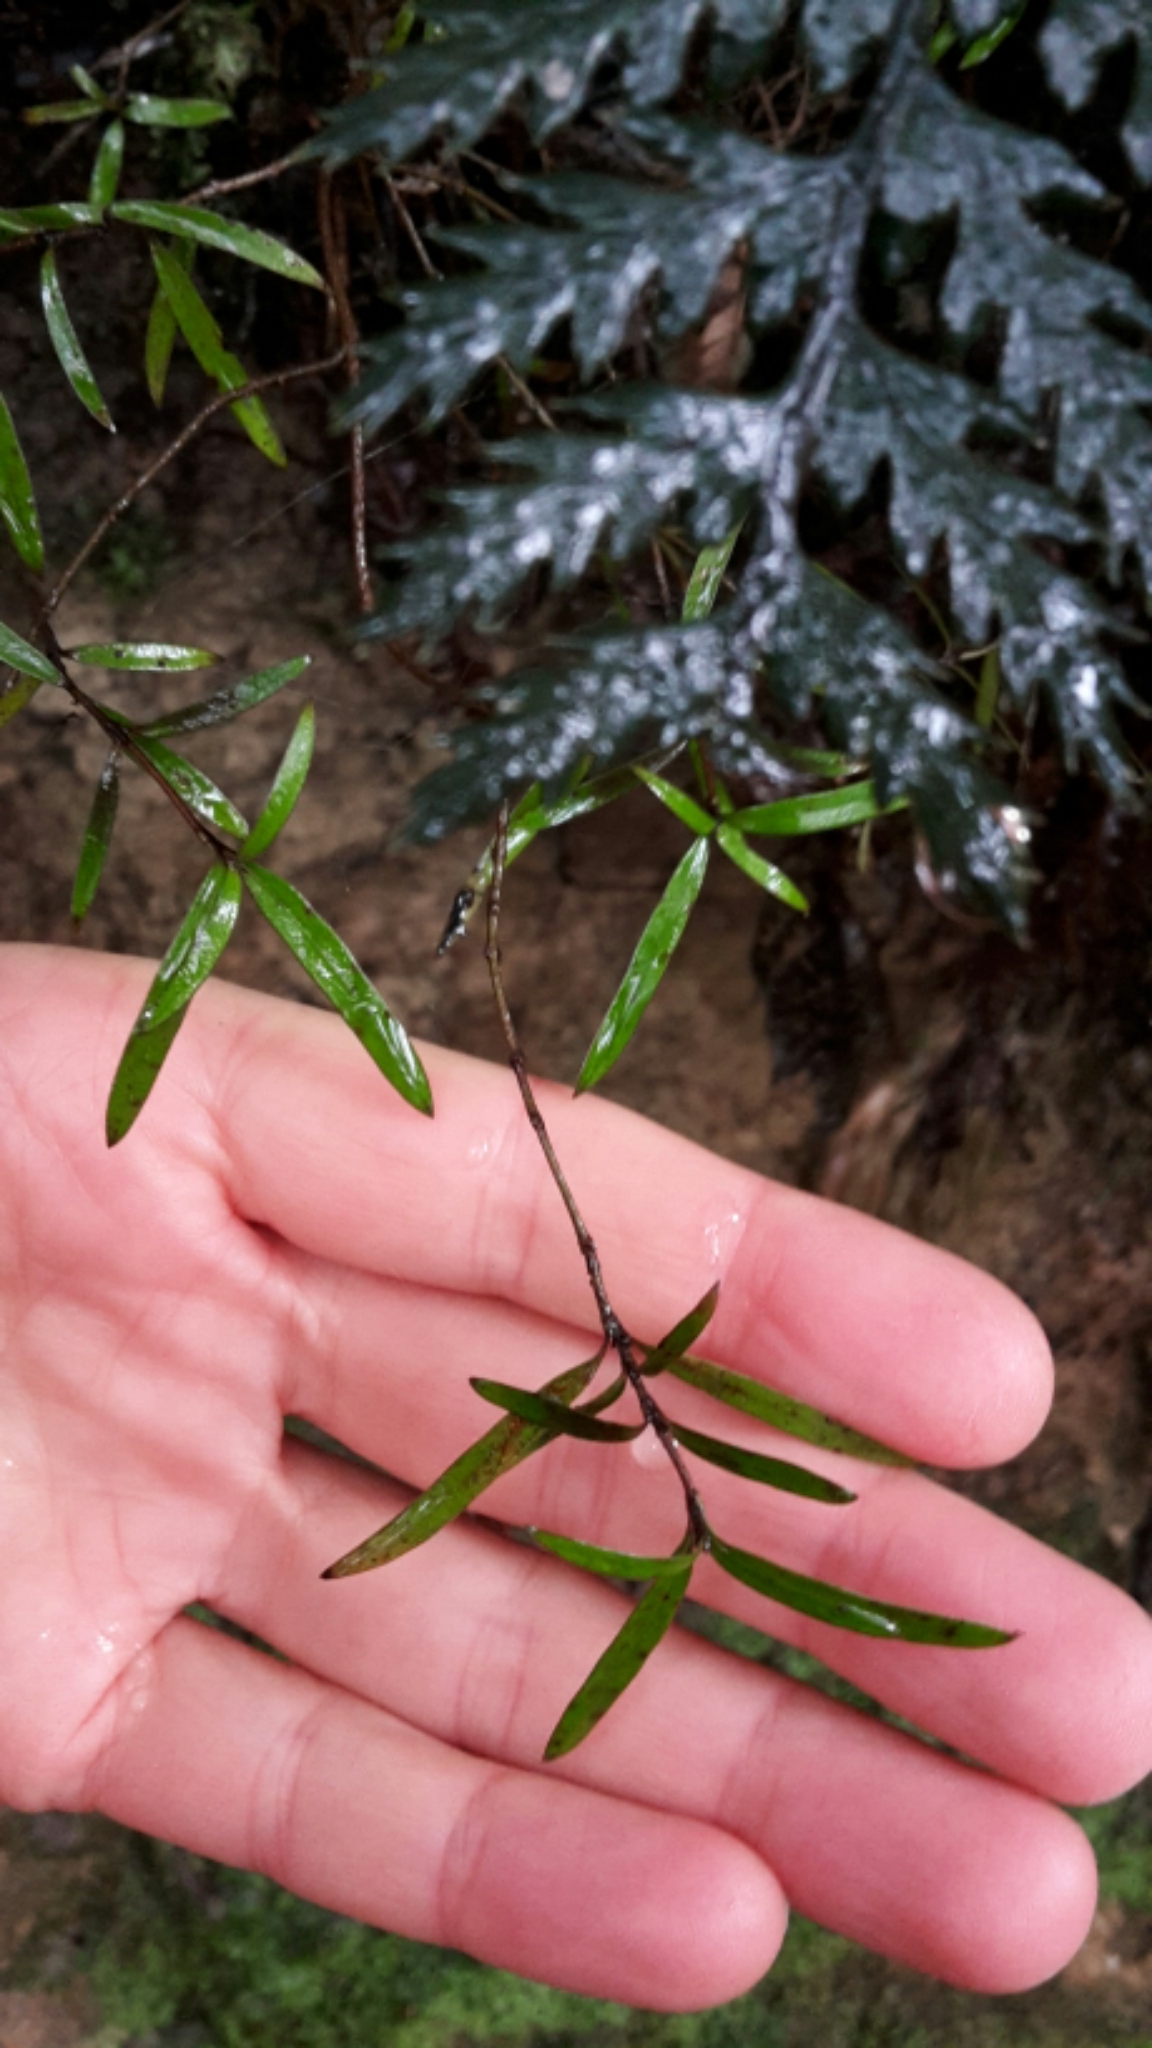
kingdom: Plantae
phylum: Tracheophyta
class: Magnoliopsida
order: Gentianales
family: Rubiaceae
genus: Coprosma
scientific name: Coprosma linariifolia
